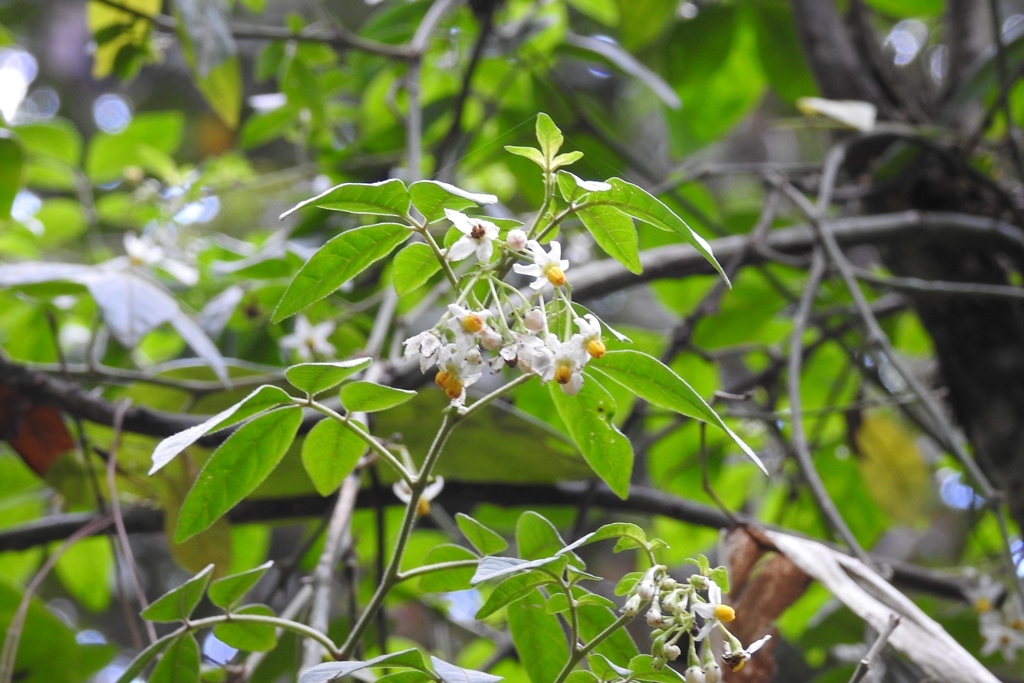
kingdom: Plantae
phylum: Tracheophyta
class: Magnoliopsida
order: Solanales
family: Solanaceae
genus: Solanum
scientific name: Solanum tacanense
